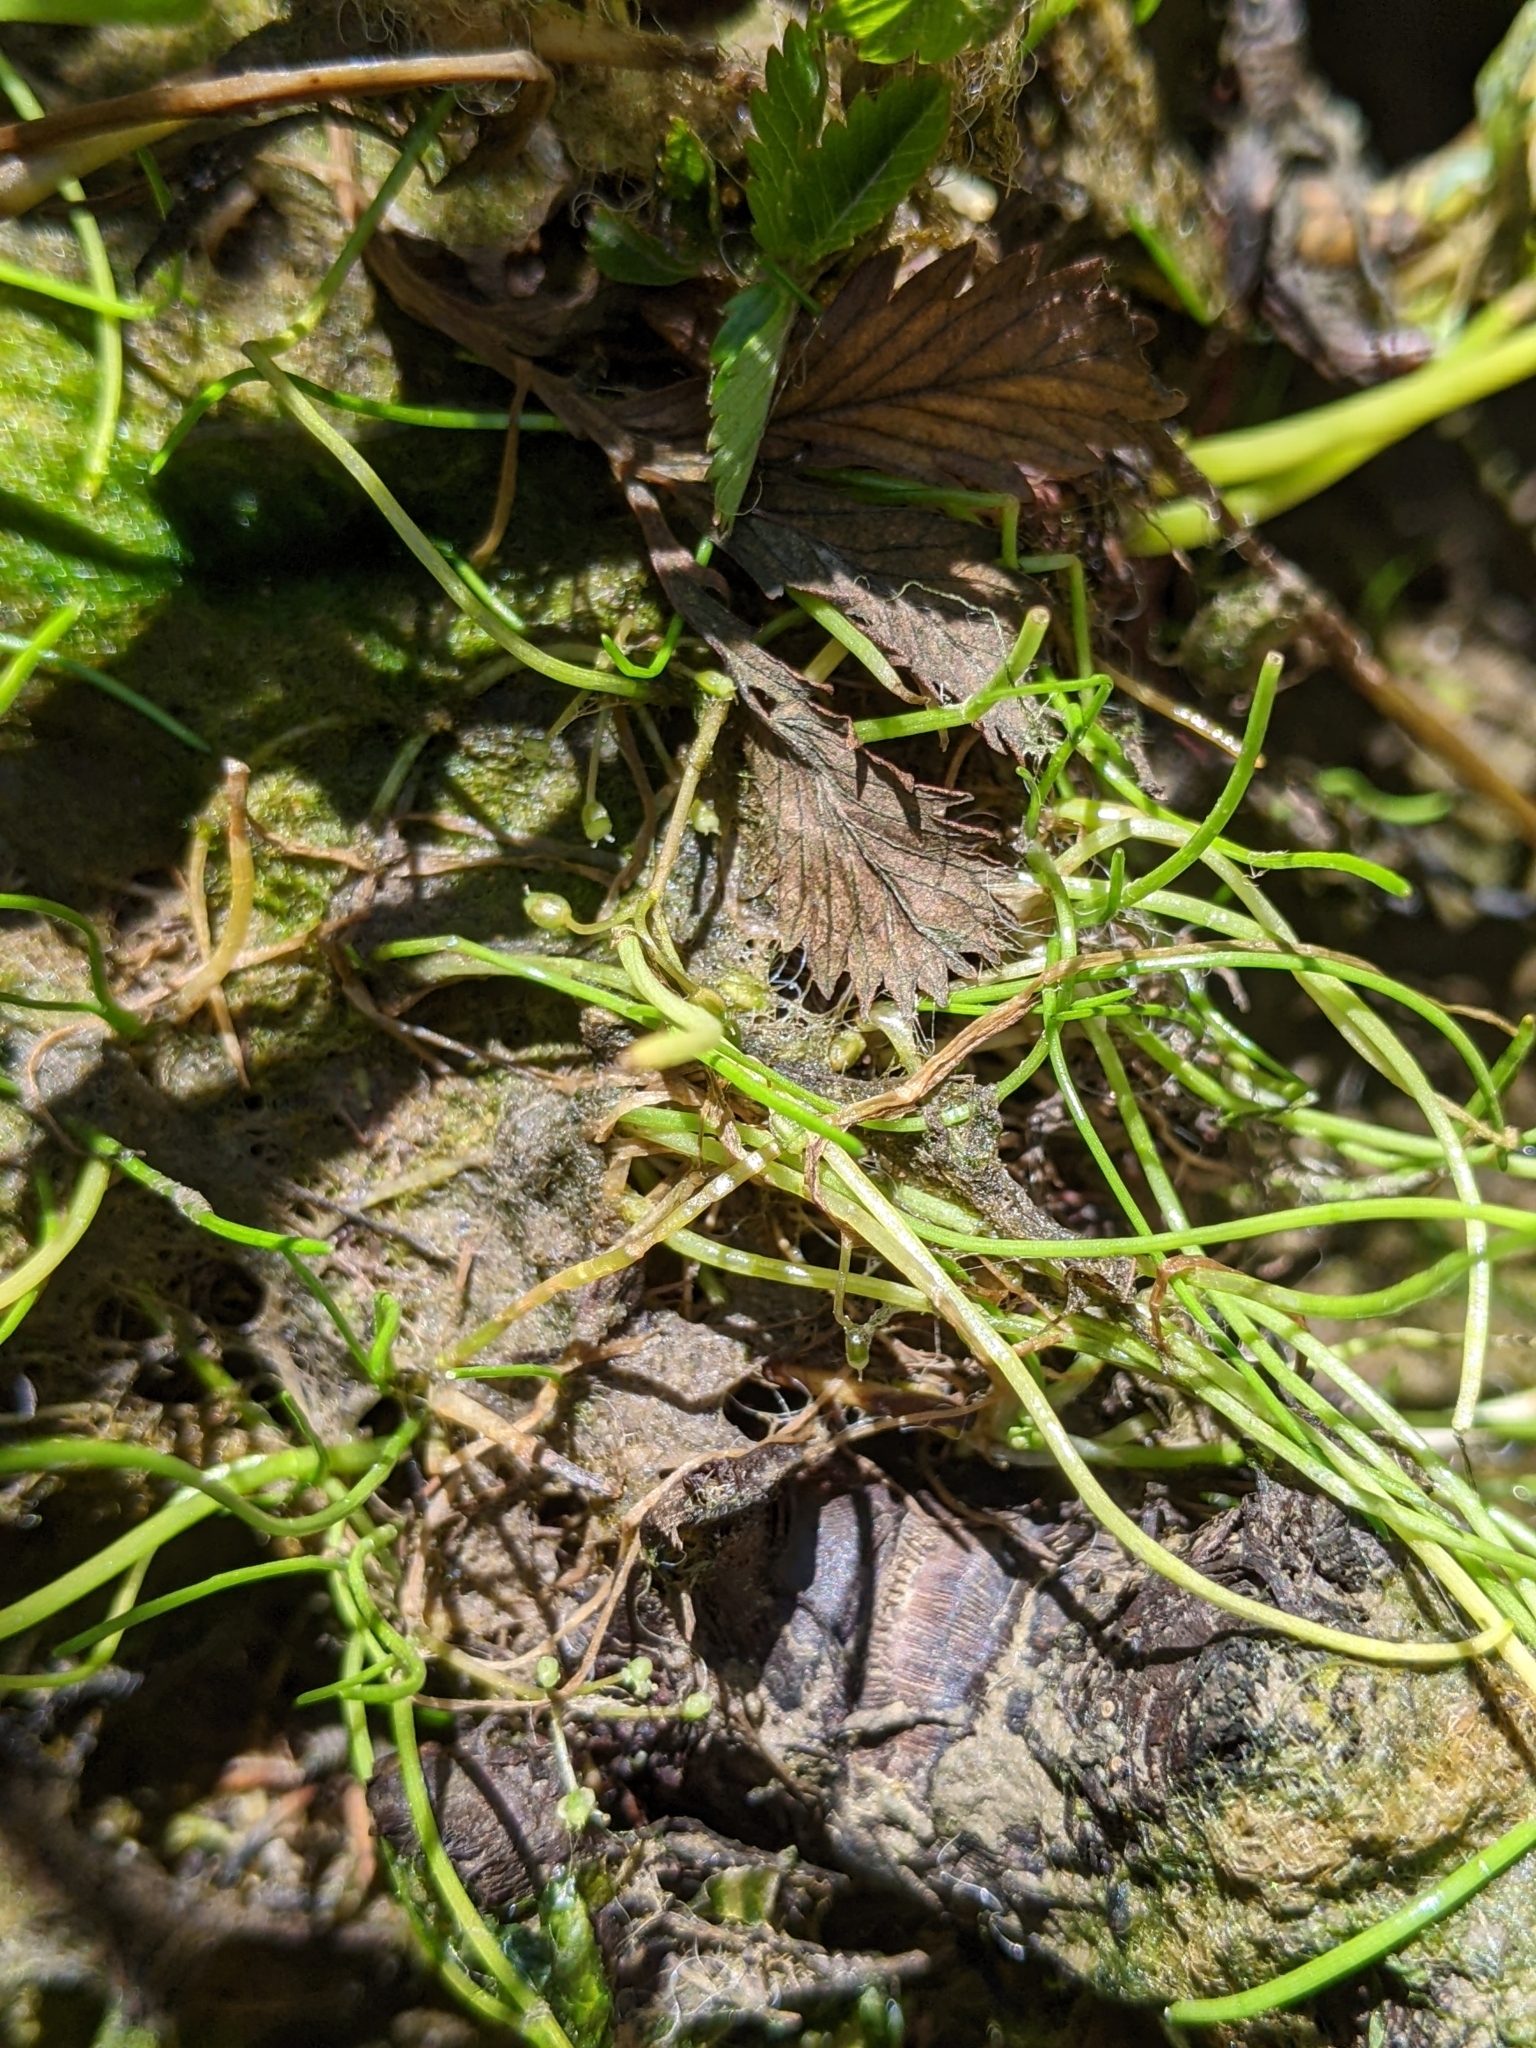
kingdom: Plantae
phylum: Tracheophyta
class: Magnoliopsida
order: Apiales
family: Apiaceae
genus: Lilaeopsis
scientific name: Lilaeopsis occidentalis
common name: Western grasswort
